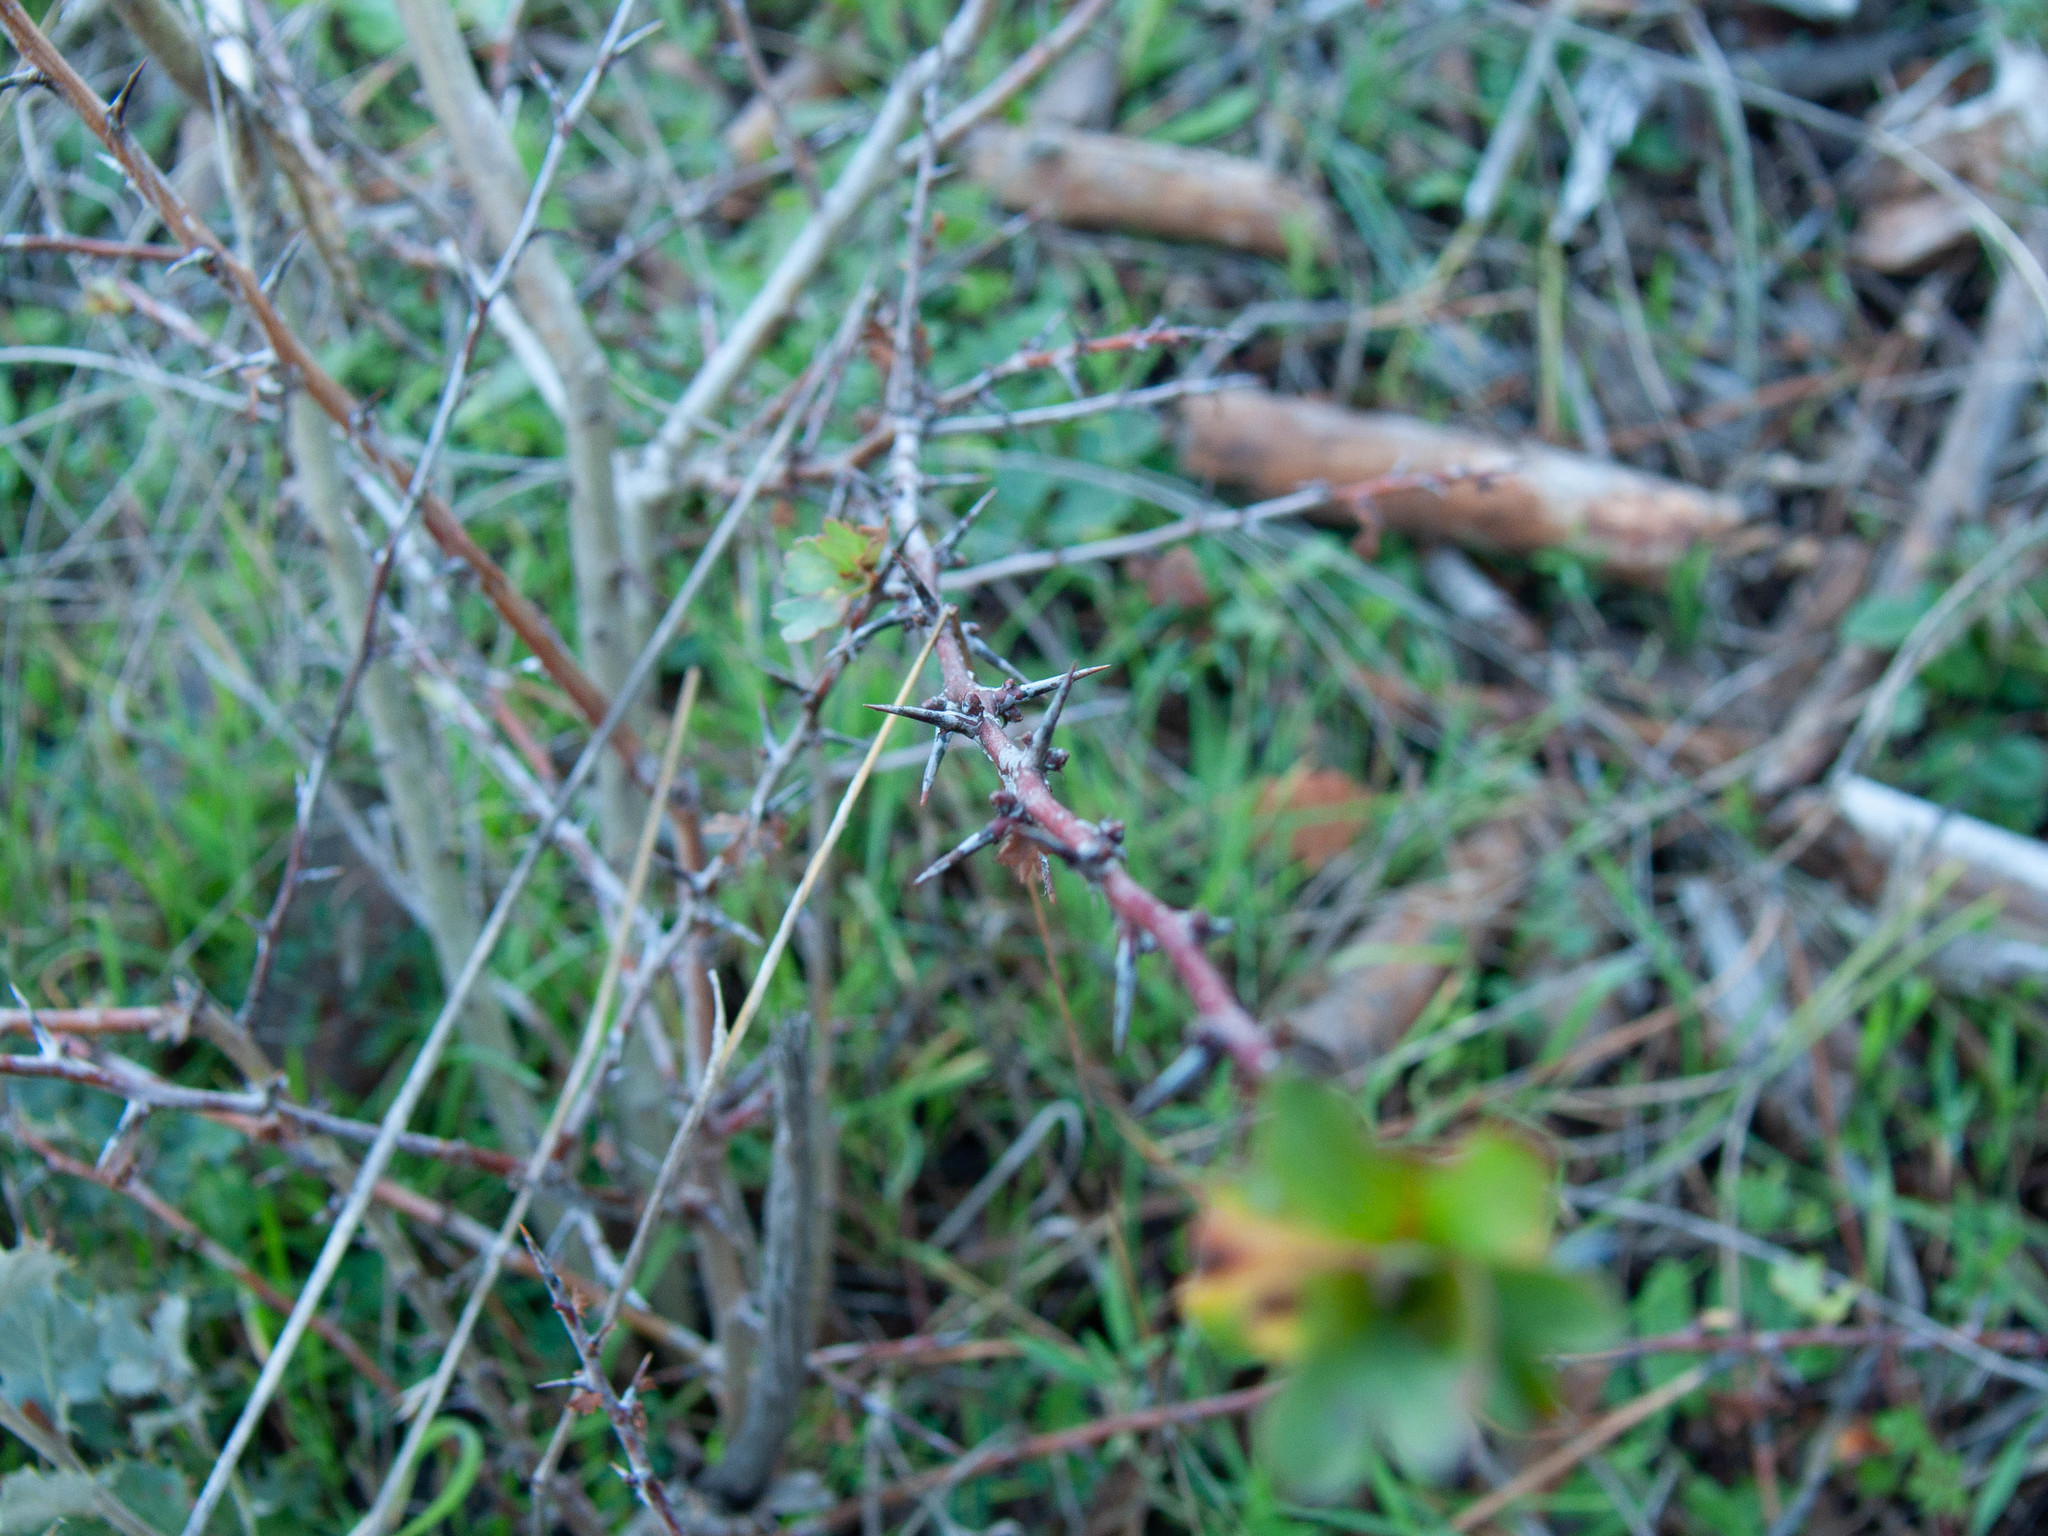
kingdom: Plantae
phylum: Tracheophyta
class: Magnoliopsida
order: Rosales
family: Rosaceae
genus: Crataegus
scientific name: Crataegus monogyna
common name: Hawthorn
